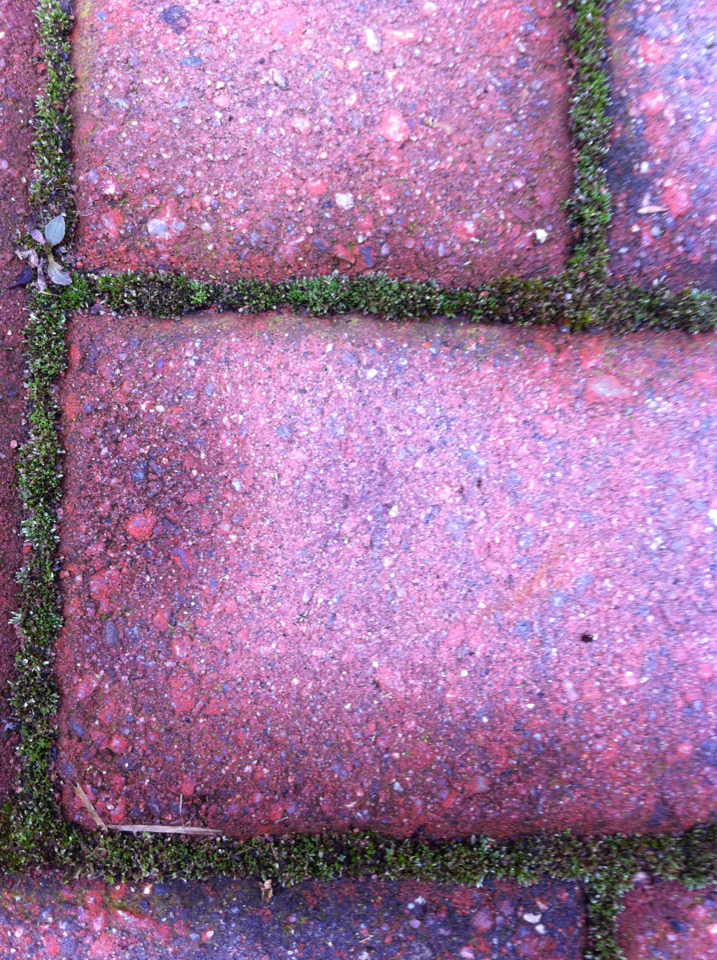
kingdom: Plantae
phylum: Bryophyta
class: Bryopsida
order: Bryales
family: Bryaceae
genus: Bryum
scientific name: Bryum argenteum
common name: Silver-moss
